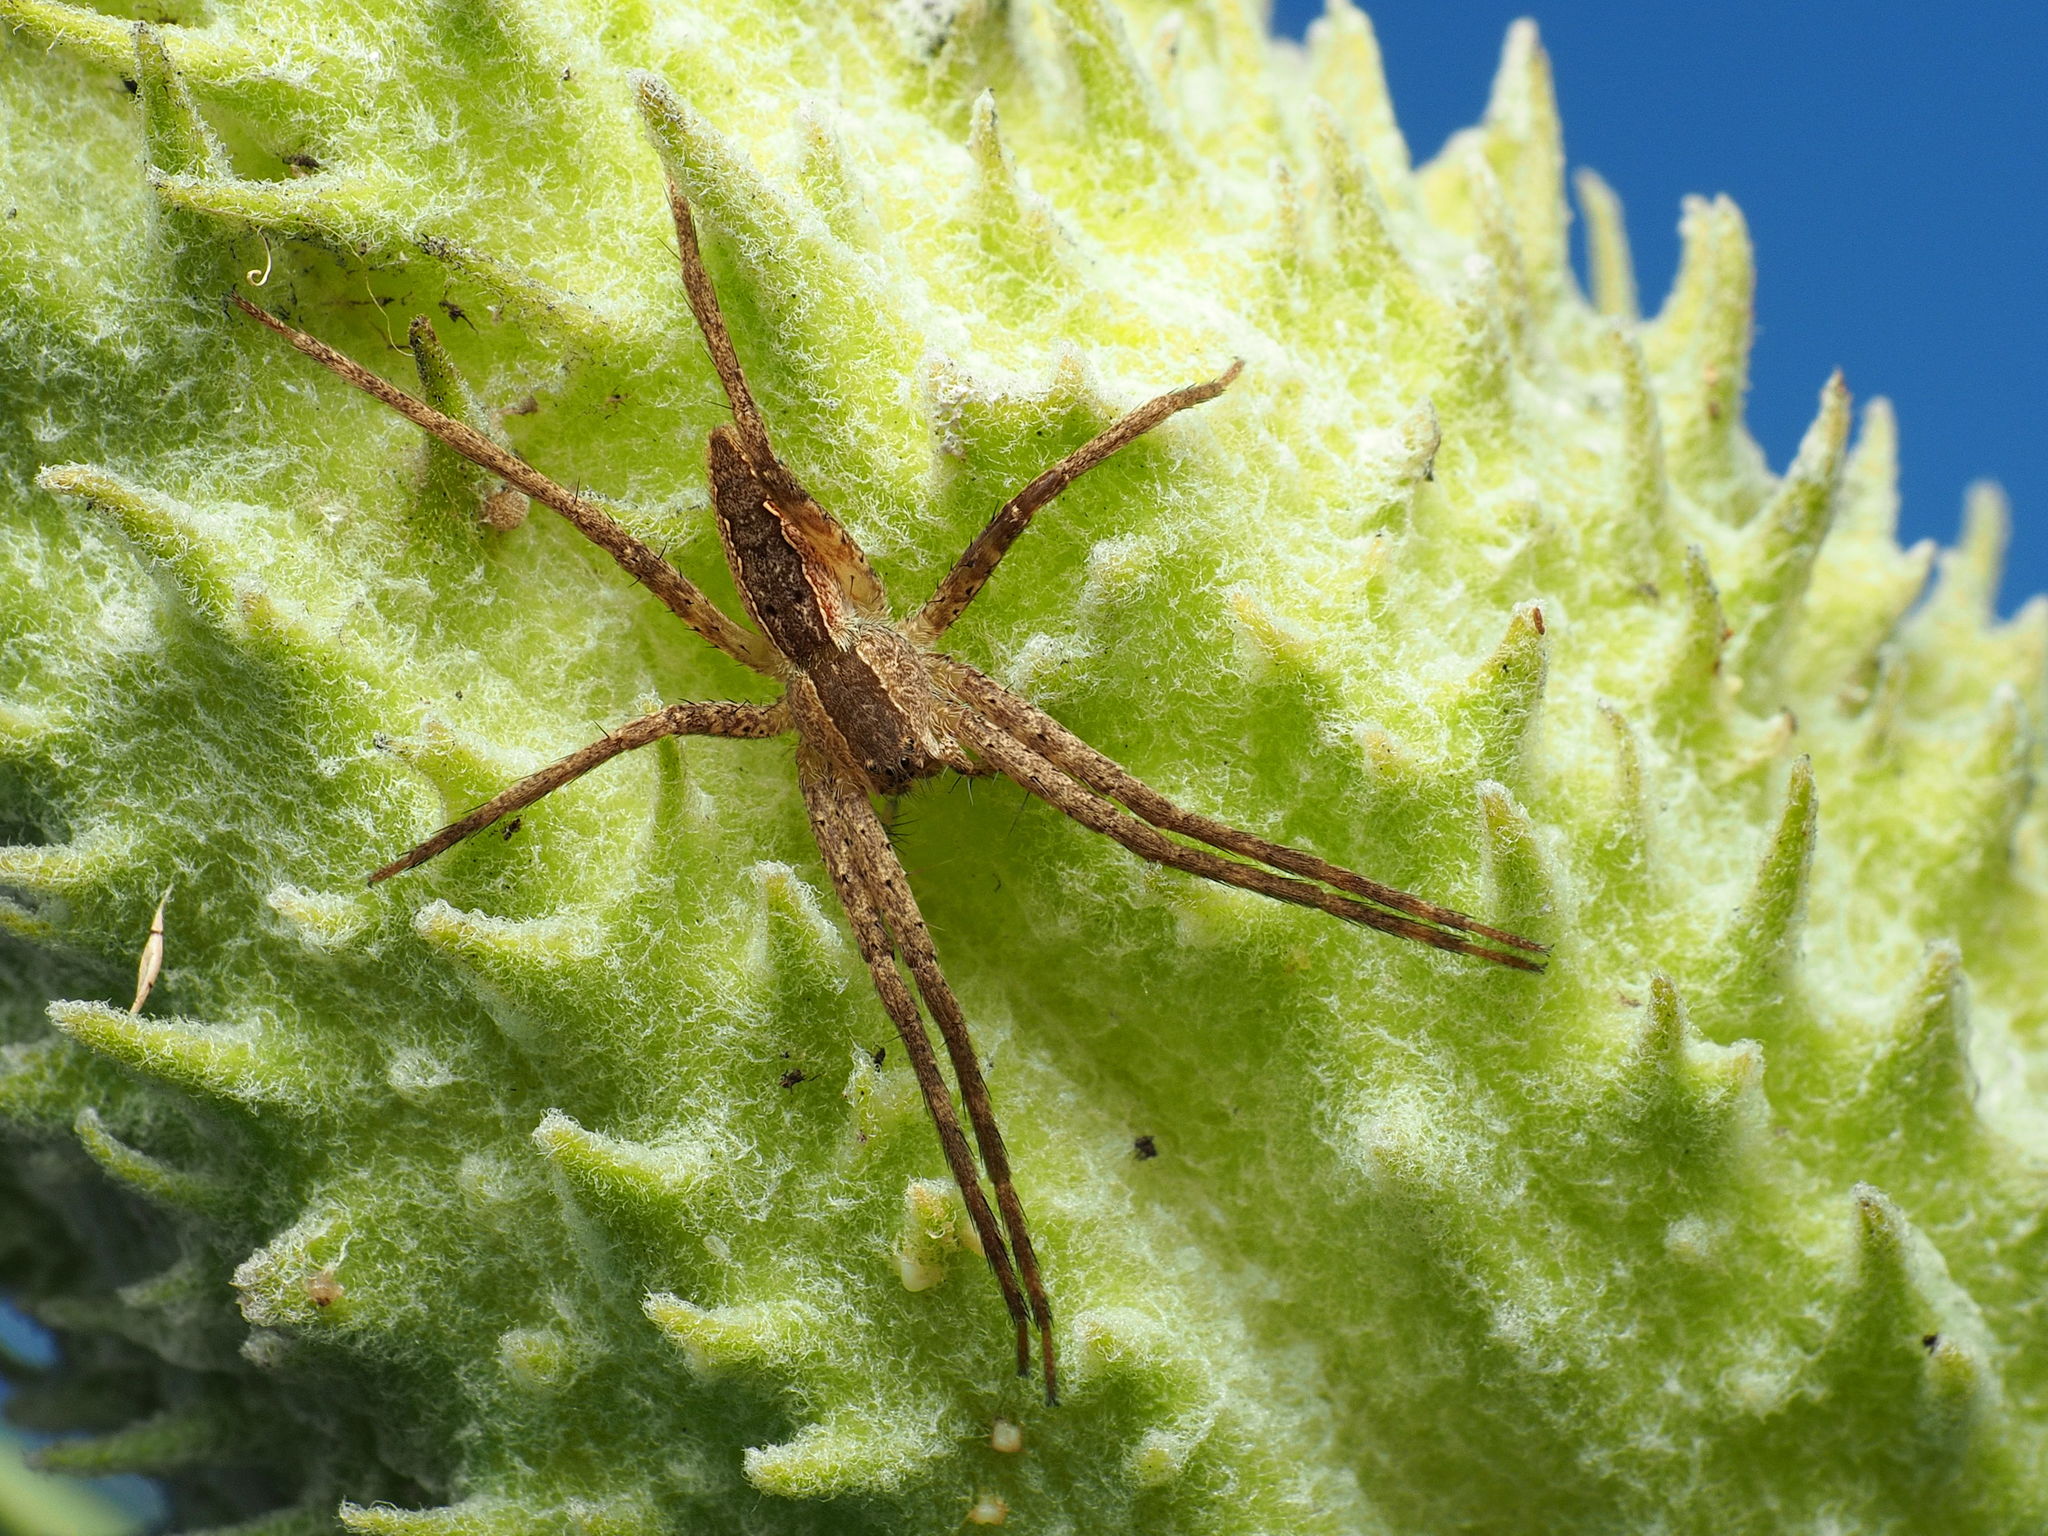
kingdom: Animalia
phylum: Arthropoda
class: Arachnida
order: Araneae
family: Pisauridae
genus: Pisaurina
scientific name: Pisaurina mira
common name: American nursery web spider
